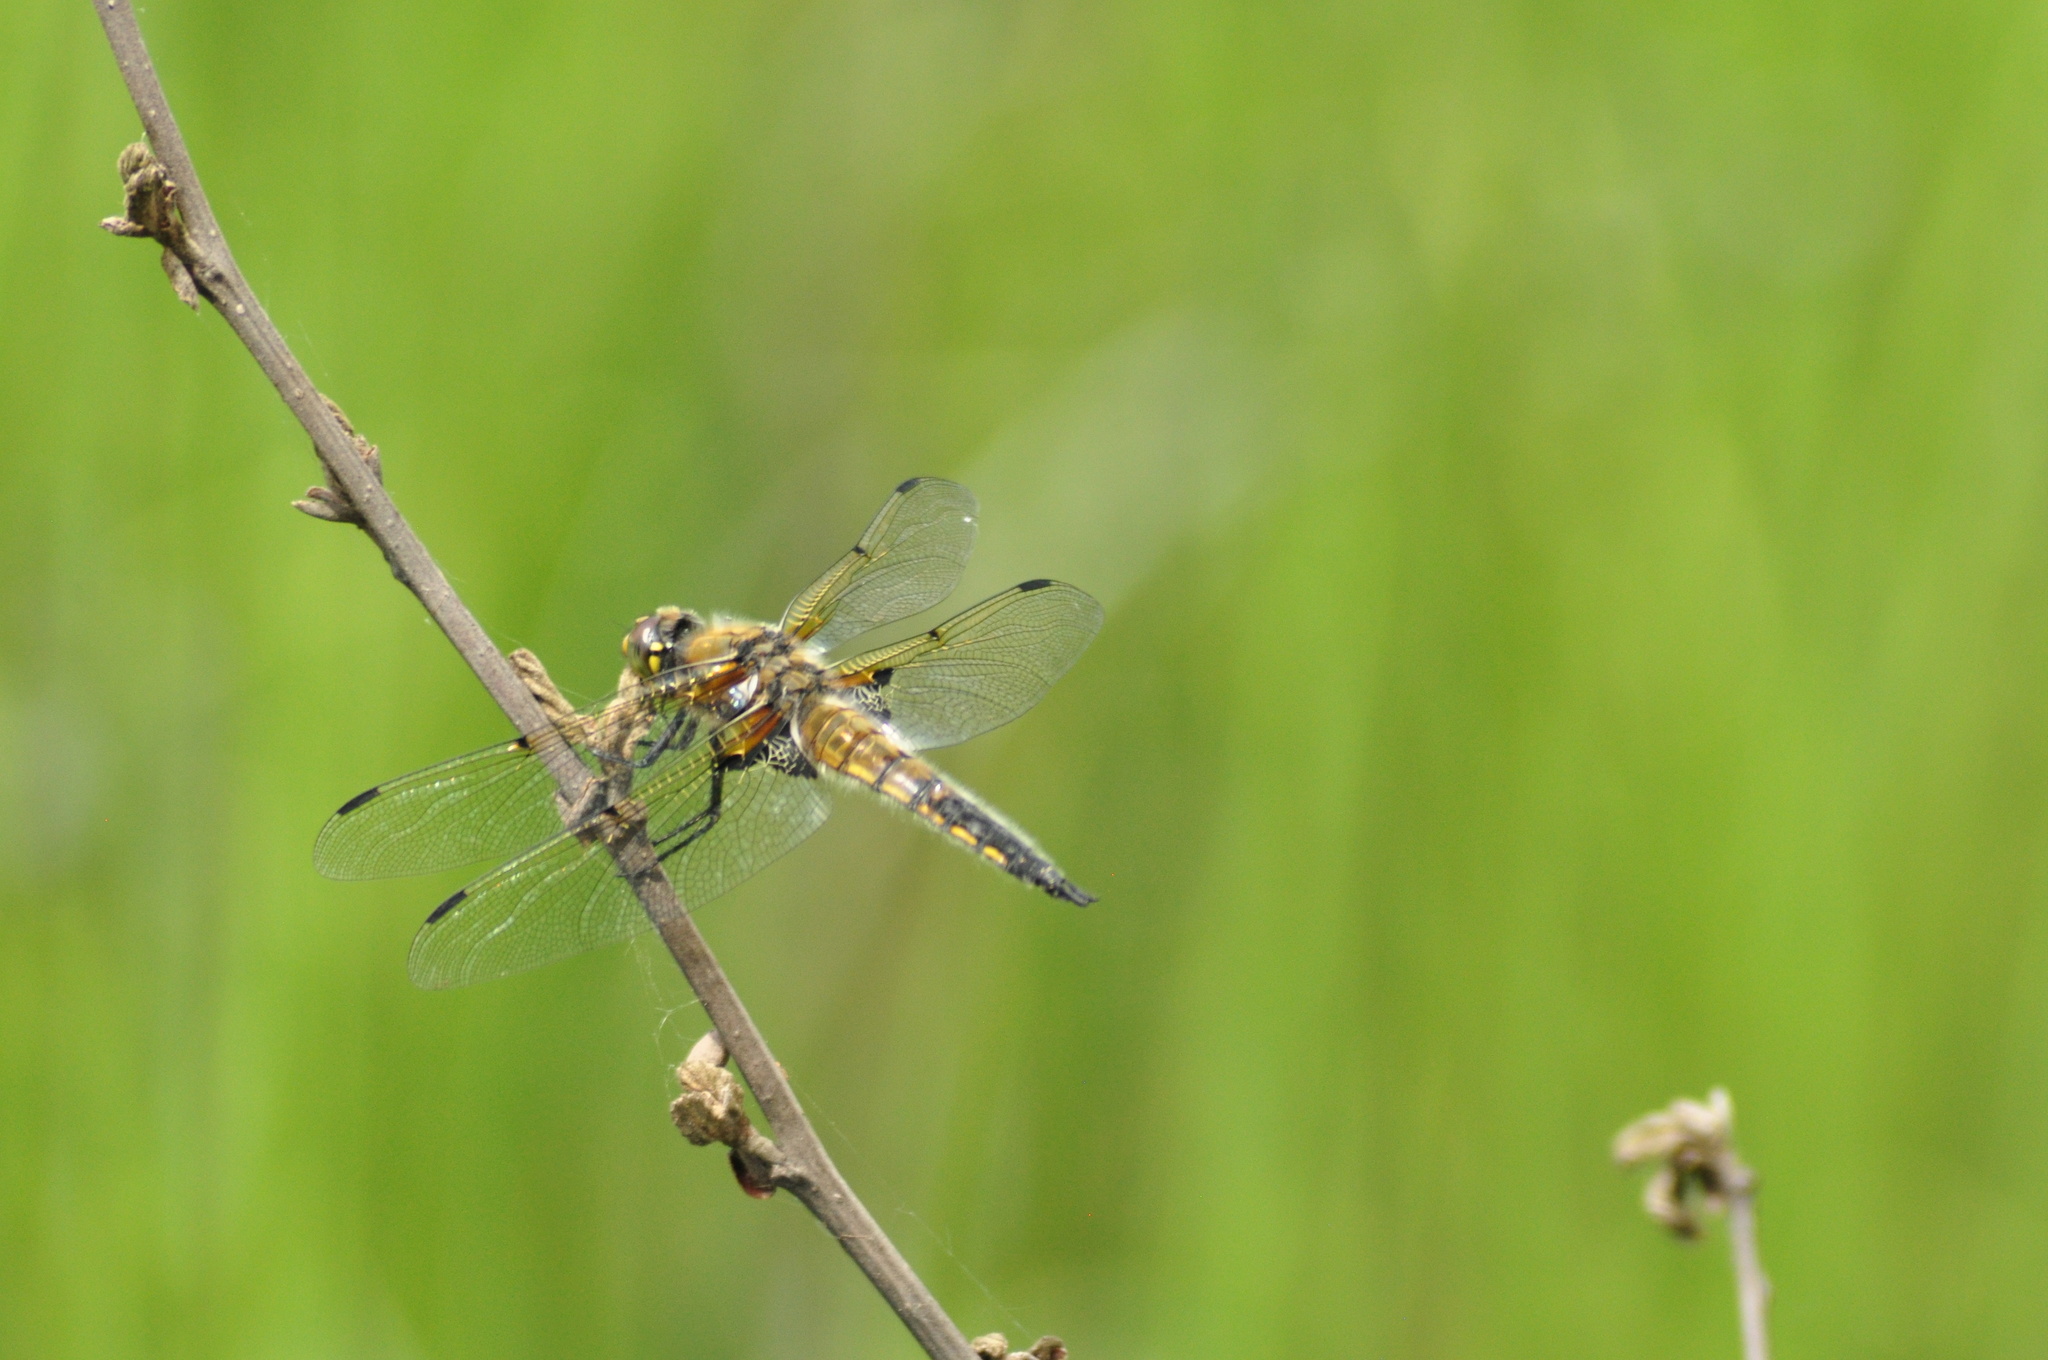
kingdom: Animalia
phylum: Arthropoda
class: Insecta
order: Odonata
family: Libellulidae
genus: Libellula
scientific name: Libellula quadrimaculata
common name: Four-spotted chaser
